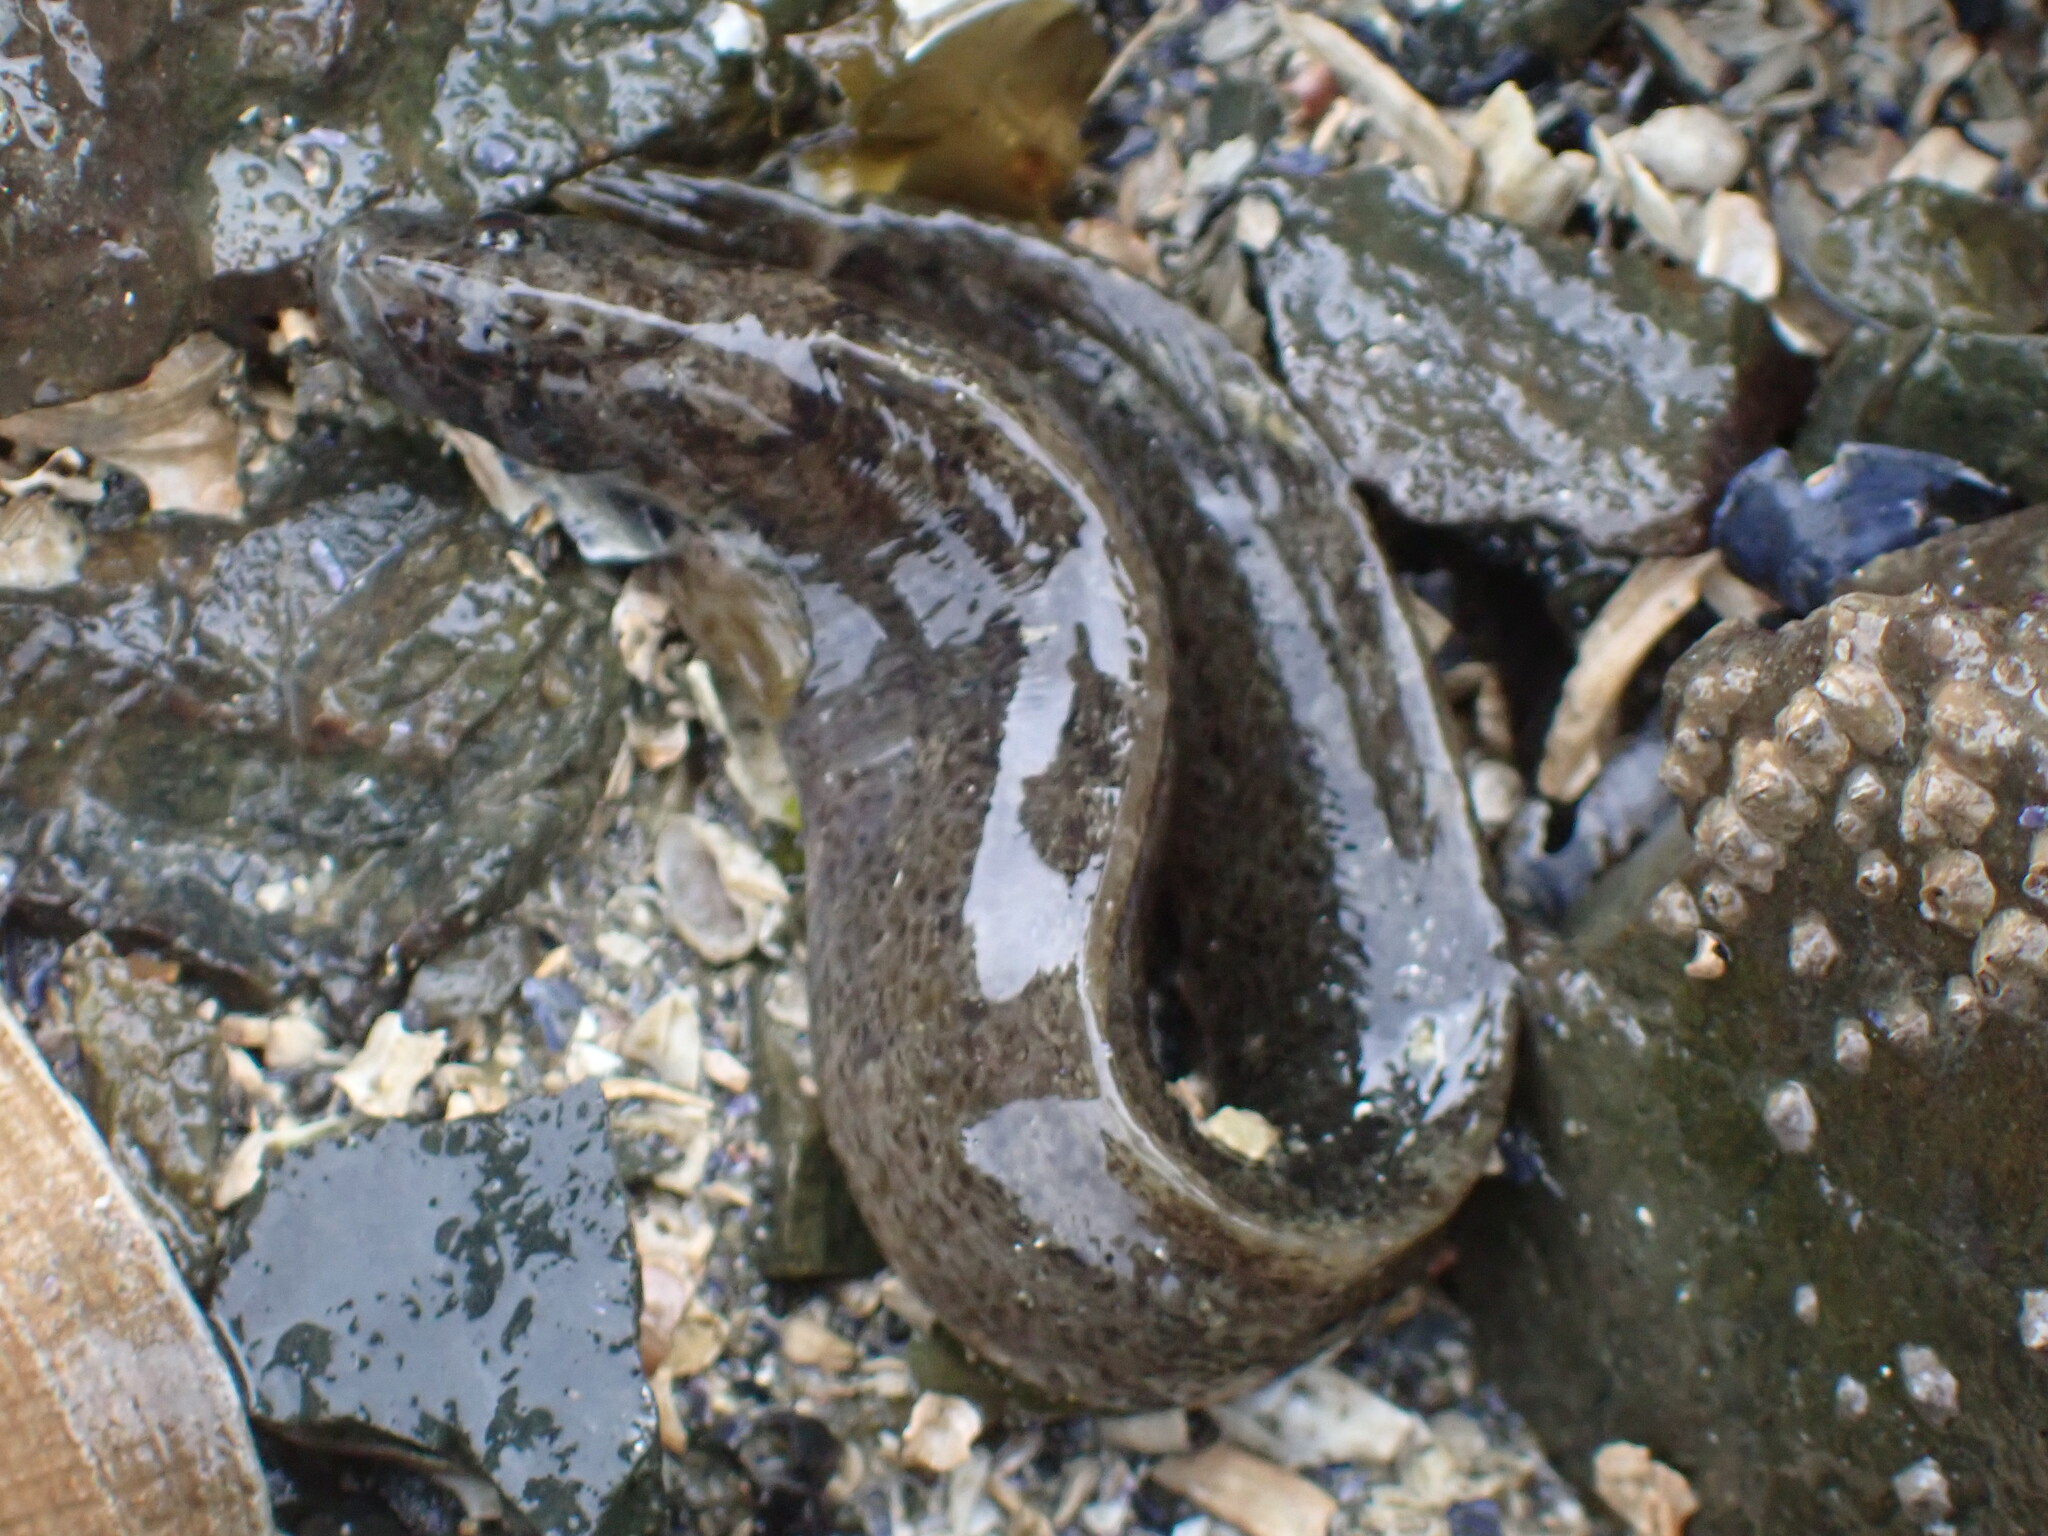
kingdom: Animalia
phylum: Chordata
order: Perciformes
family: Stichaeidae
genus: Anoplarchus
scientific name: Anoplarchus purpurescens
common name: High cockscomb
